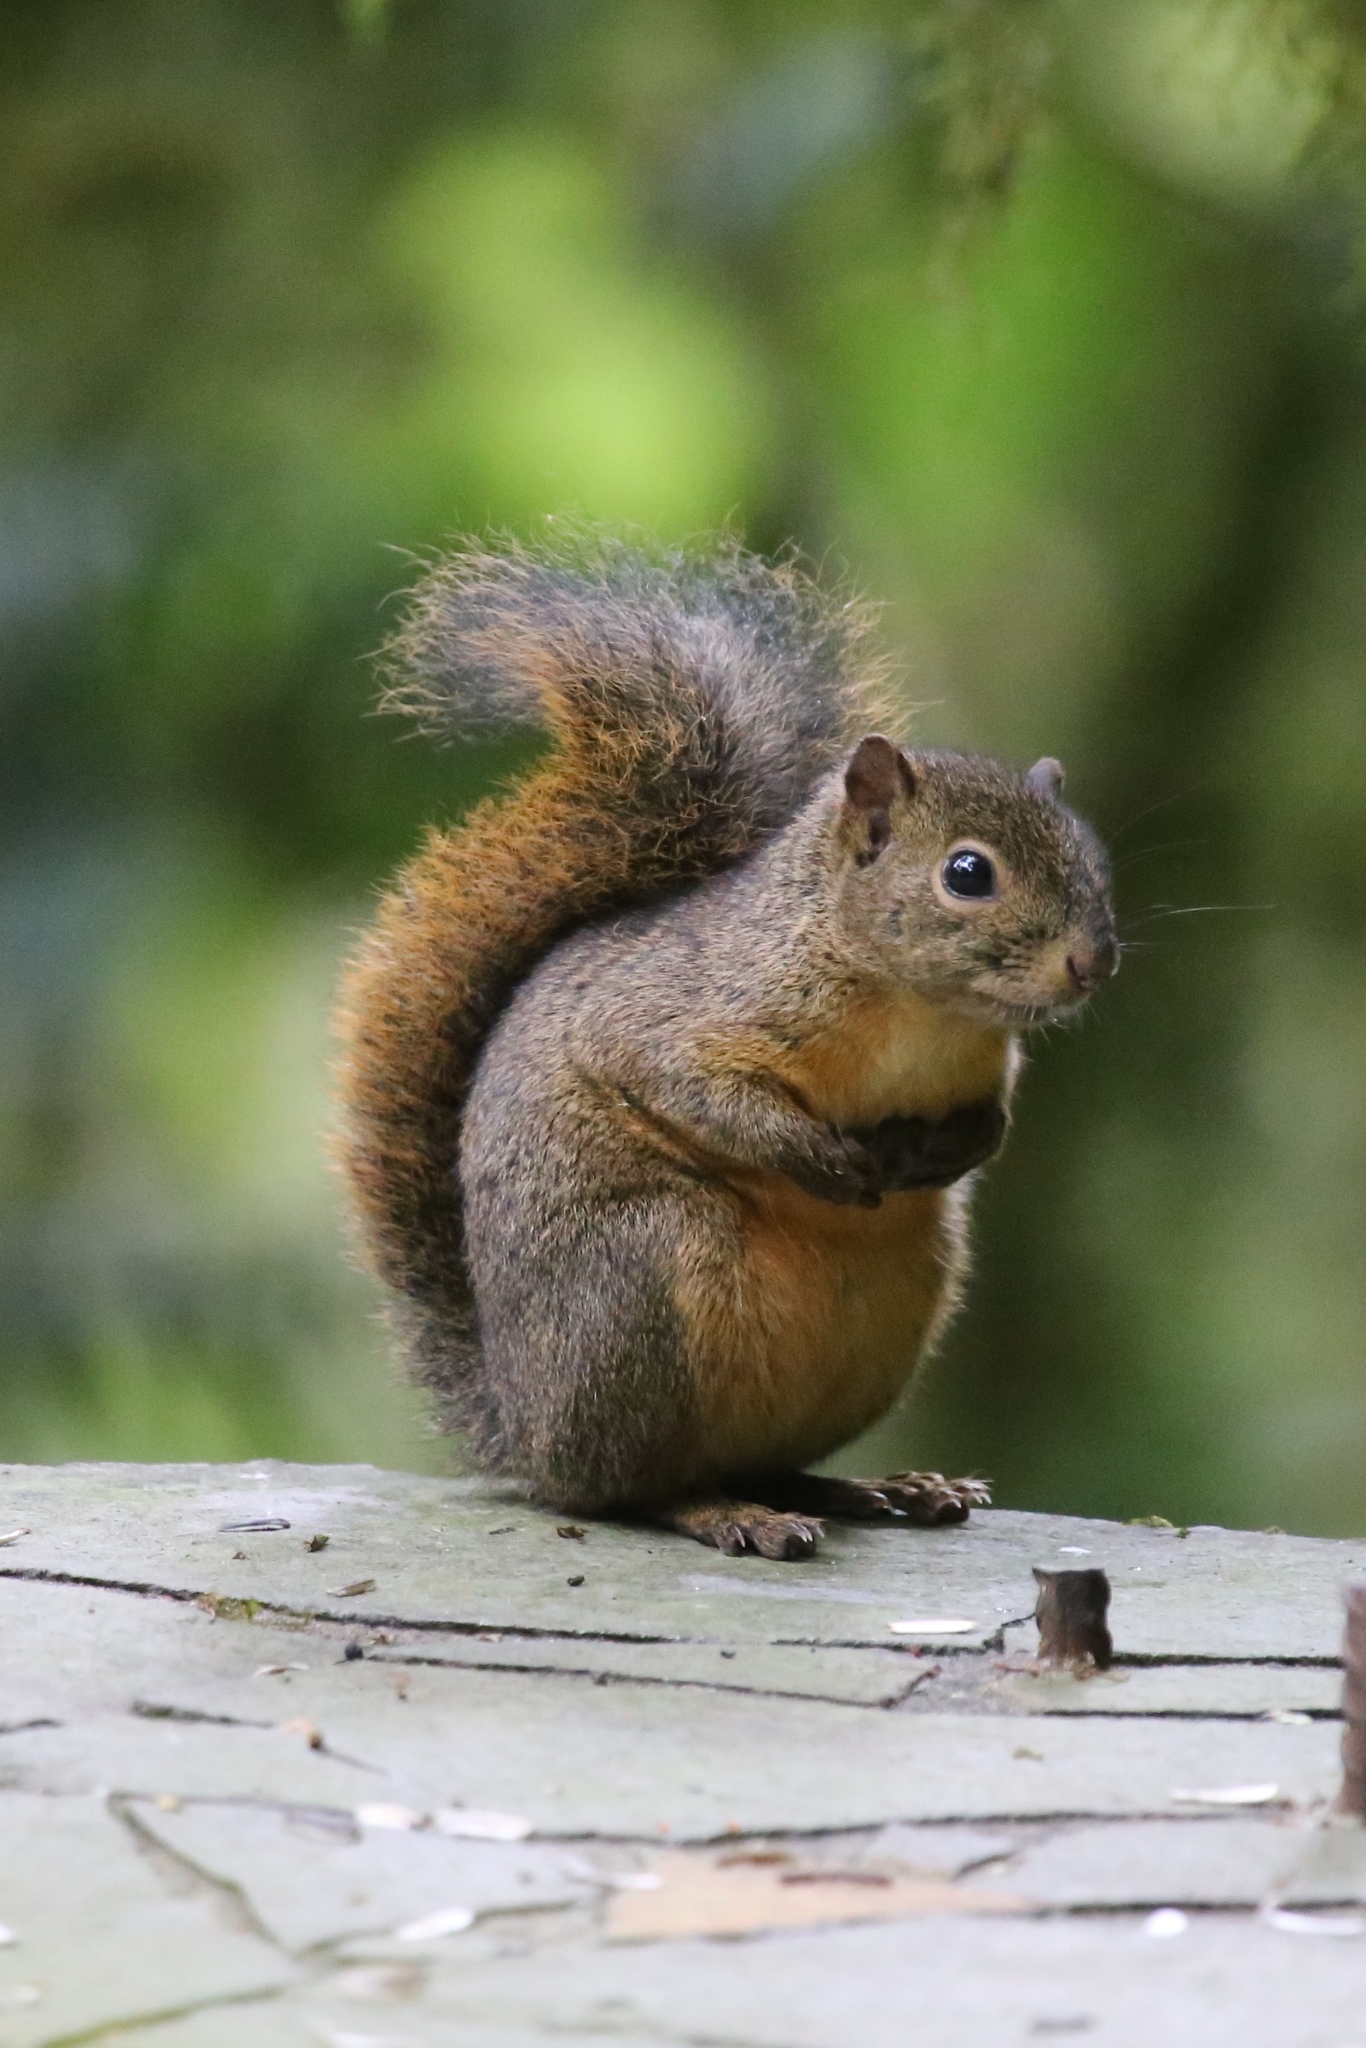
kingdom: Animalia
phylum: Chordata
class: Mammalia
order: Rodentia
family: Sciuridae
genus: Sciurus
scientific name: Sciurus granatensis
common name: Red-tailed squirrel
